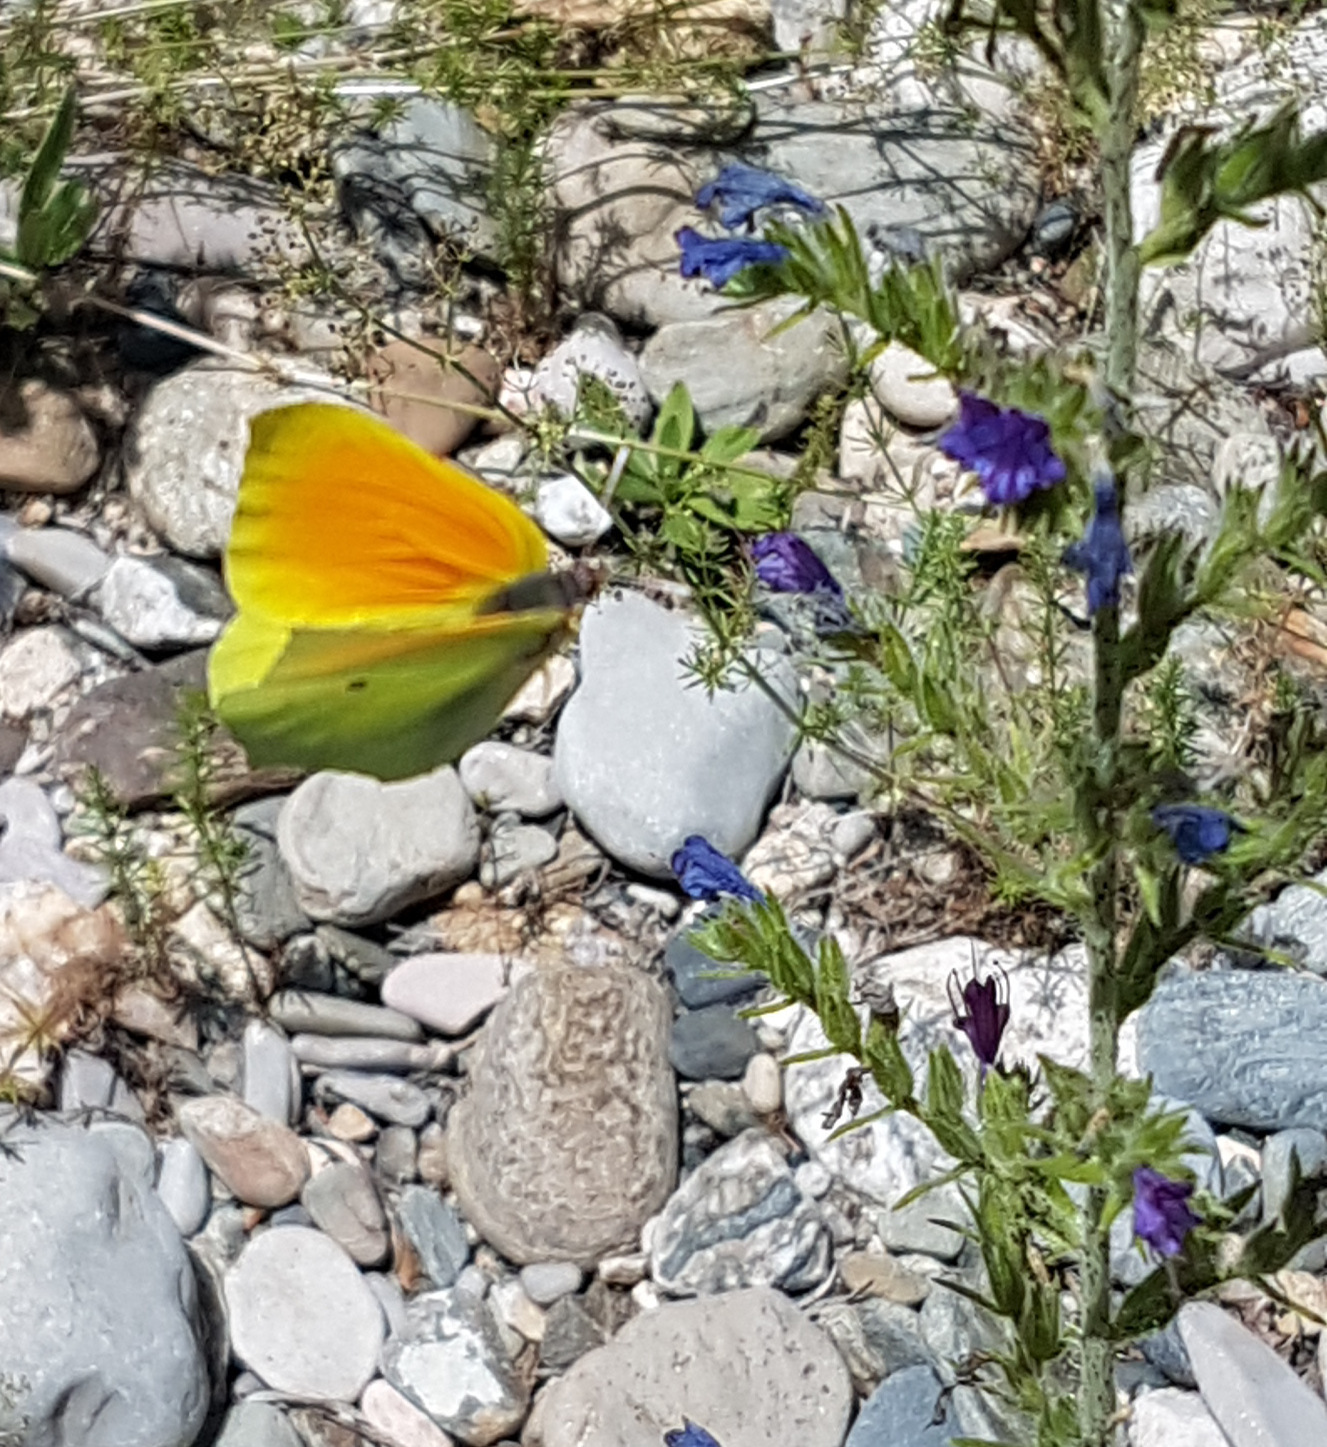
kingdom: Animalia
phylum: Arthropoda
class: Insecta
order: Lepidoptera
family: Pieridae
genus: Gonepteryx
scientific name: Gonepteryx cleopatra
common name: Cleopatra
